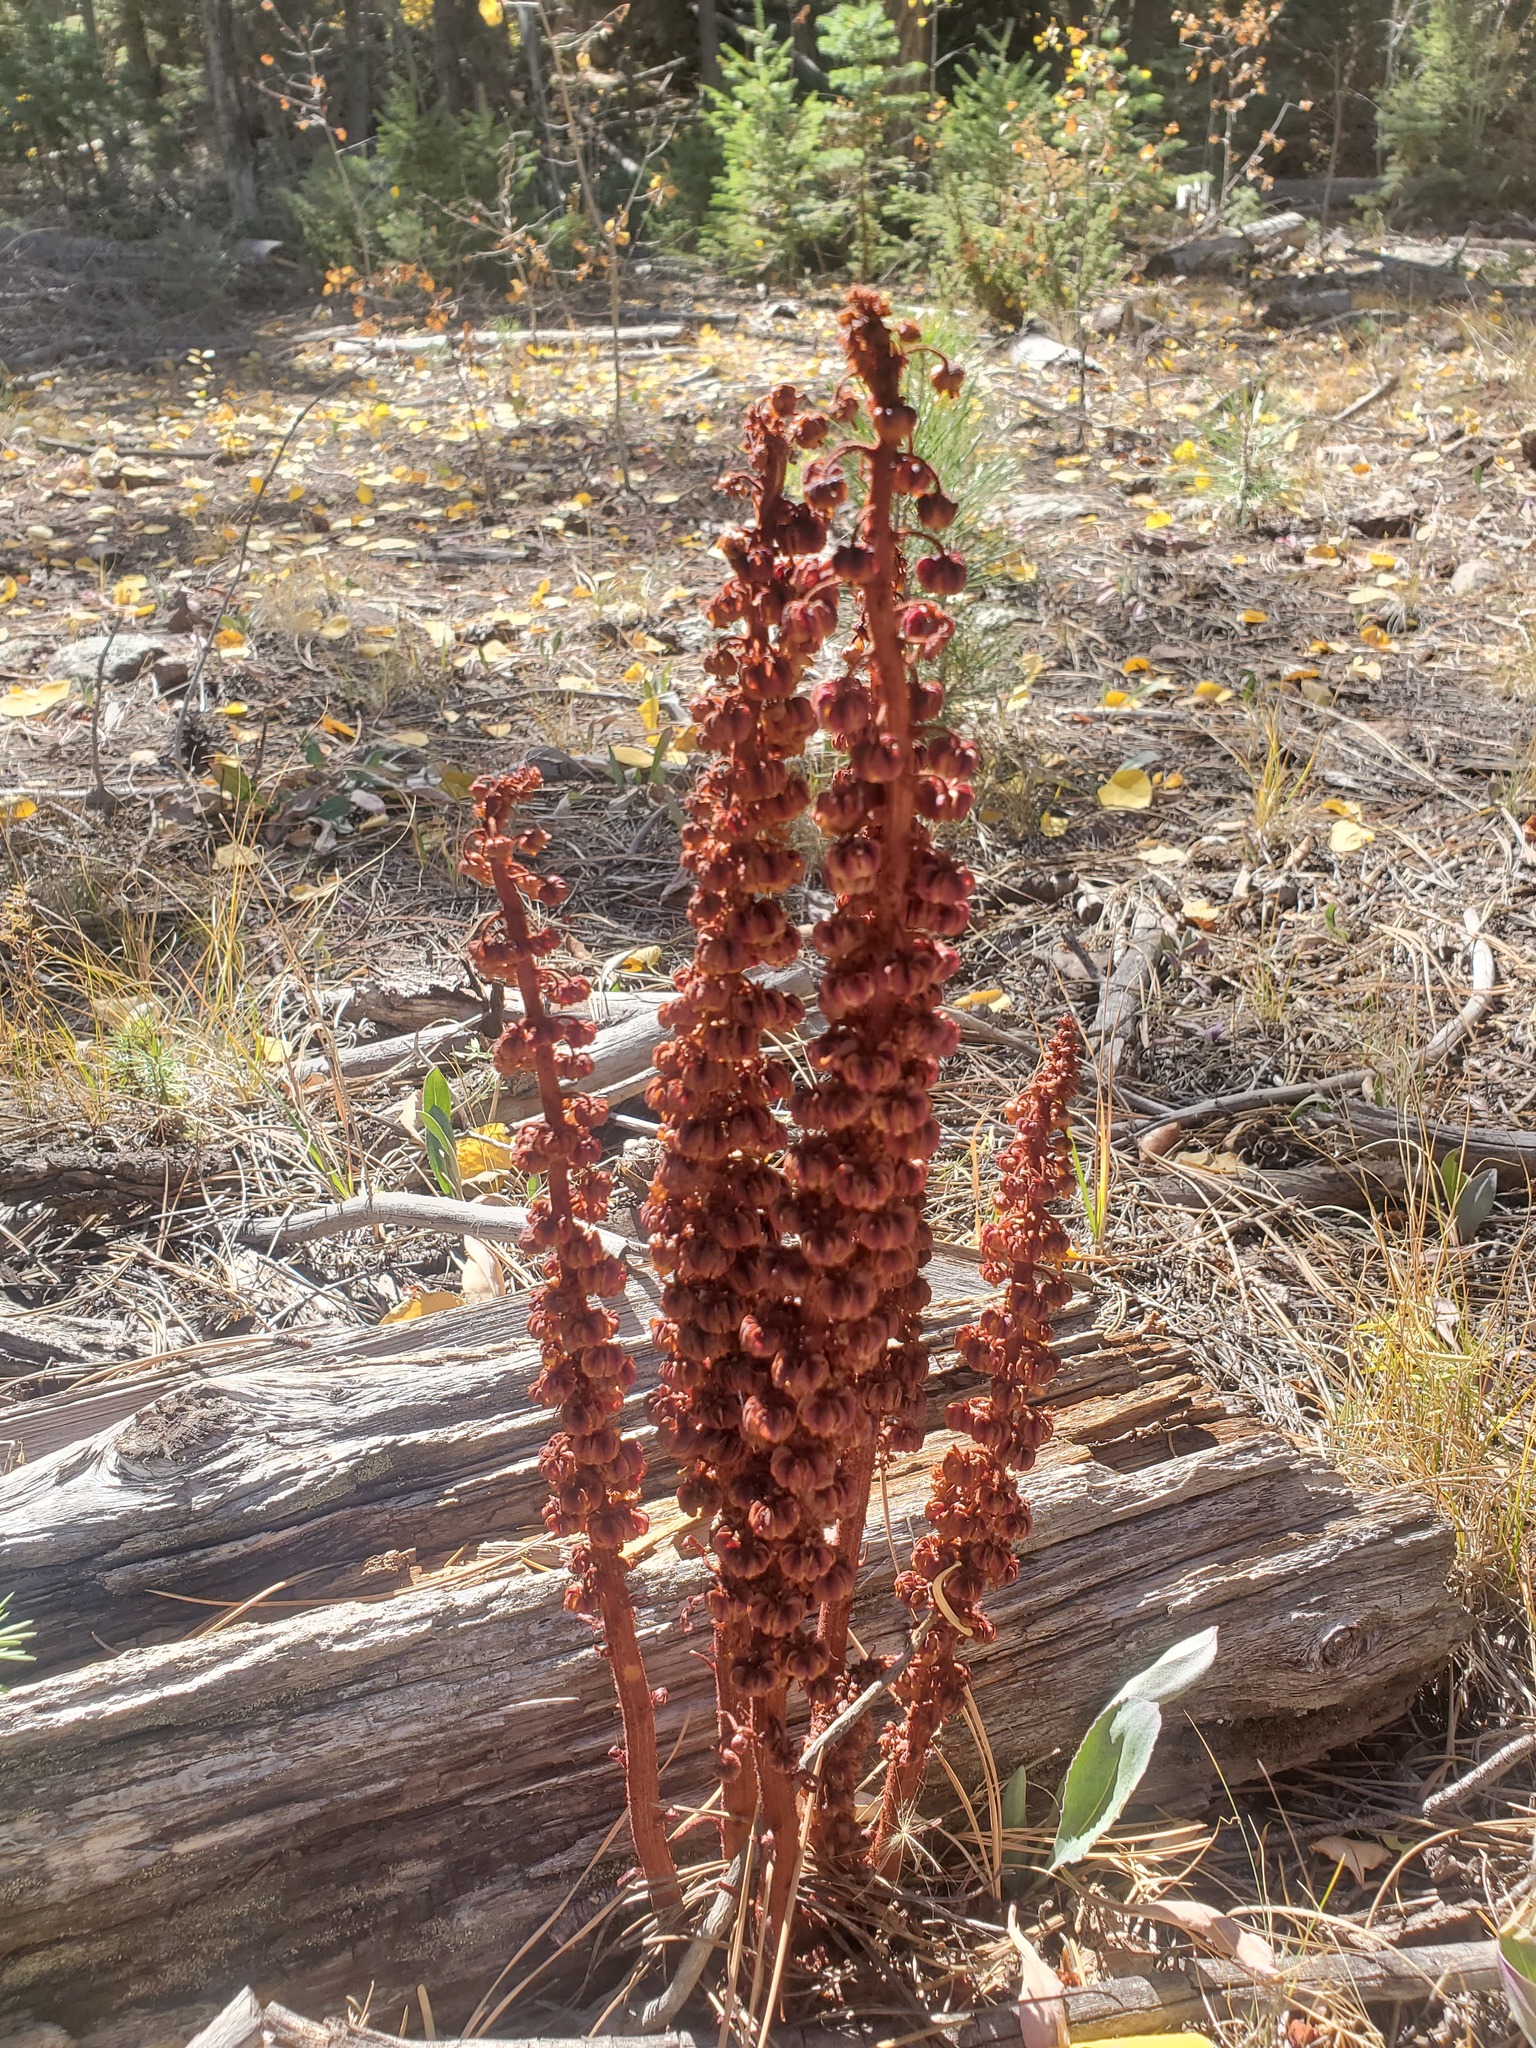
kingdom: Plantae
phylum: Tracheophyta
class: Magnoliopsida
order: Ericales
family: Ericaceae
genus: Pterospora
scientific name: Pterospora andromedea
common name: Giant bird's-nest
